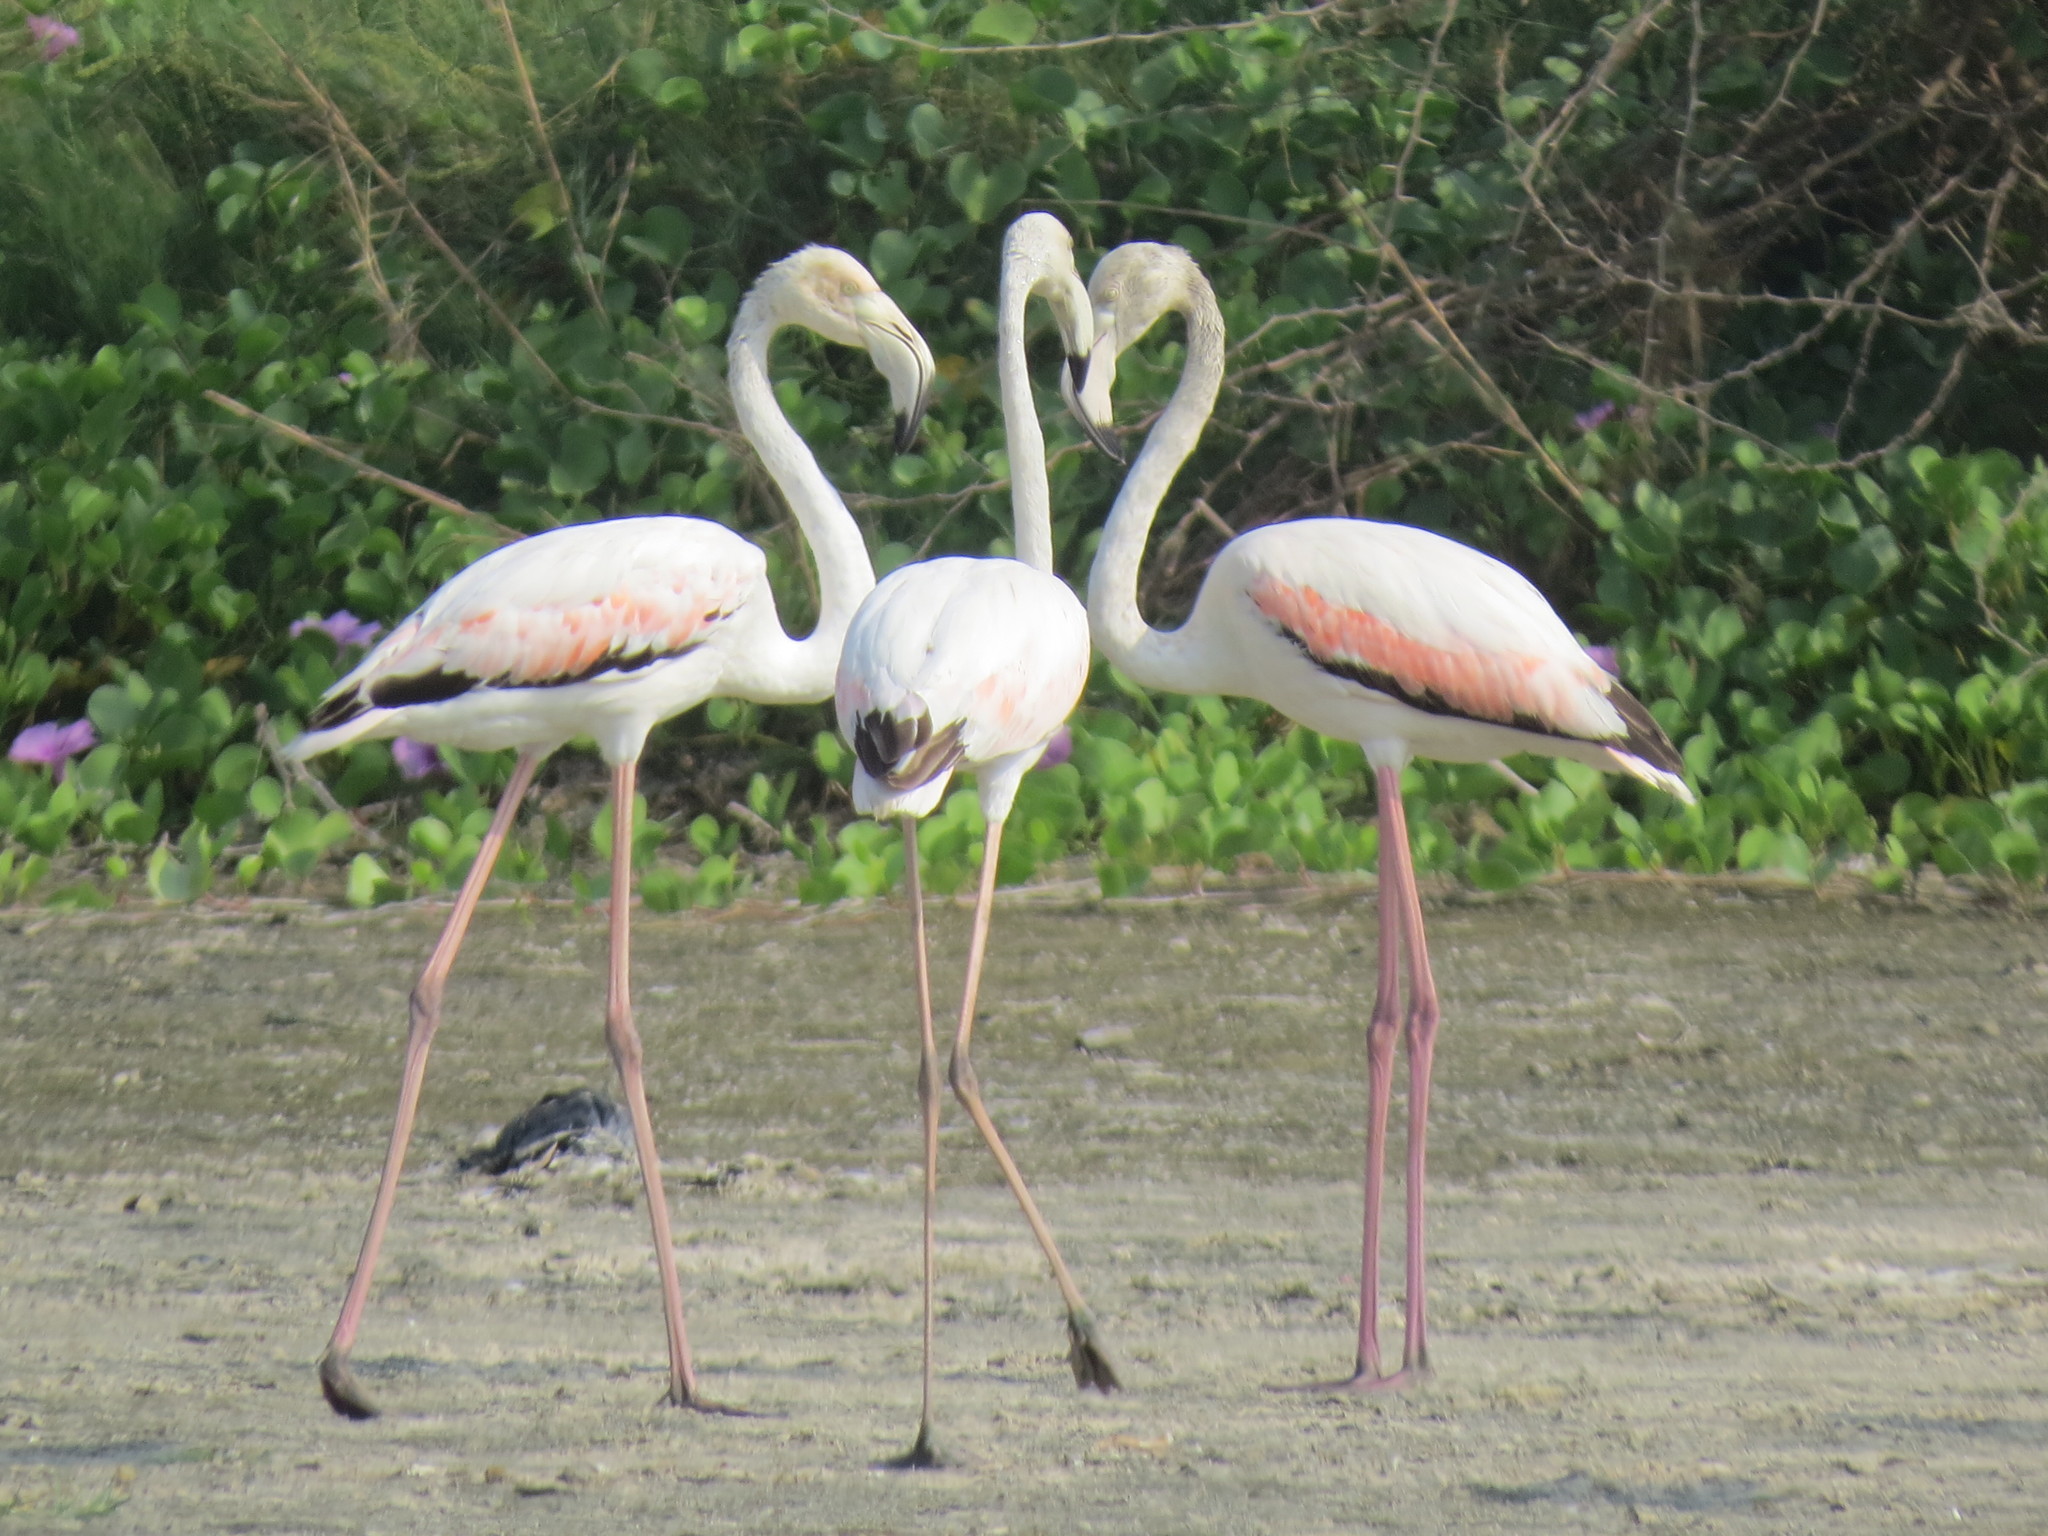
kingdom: Animalia
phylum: Chordata
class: Aves
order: Phoenicopteriformes
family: Phoenicopteridae
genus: Phoenicopterus
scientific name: Phoenicopterus roseus
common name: Greater flamingo
